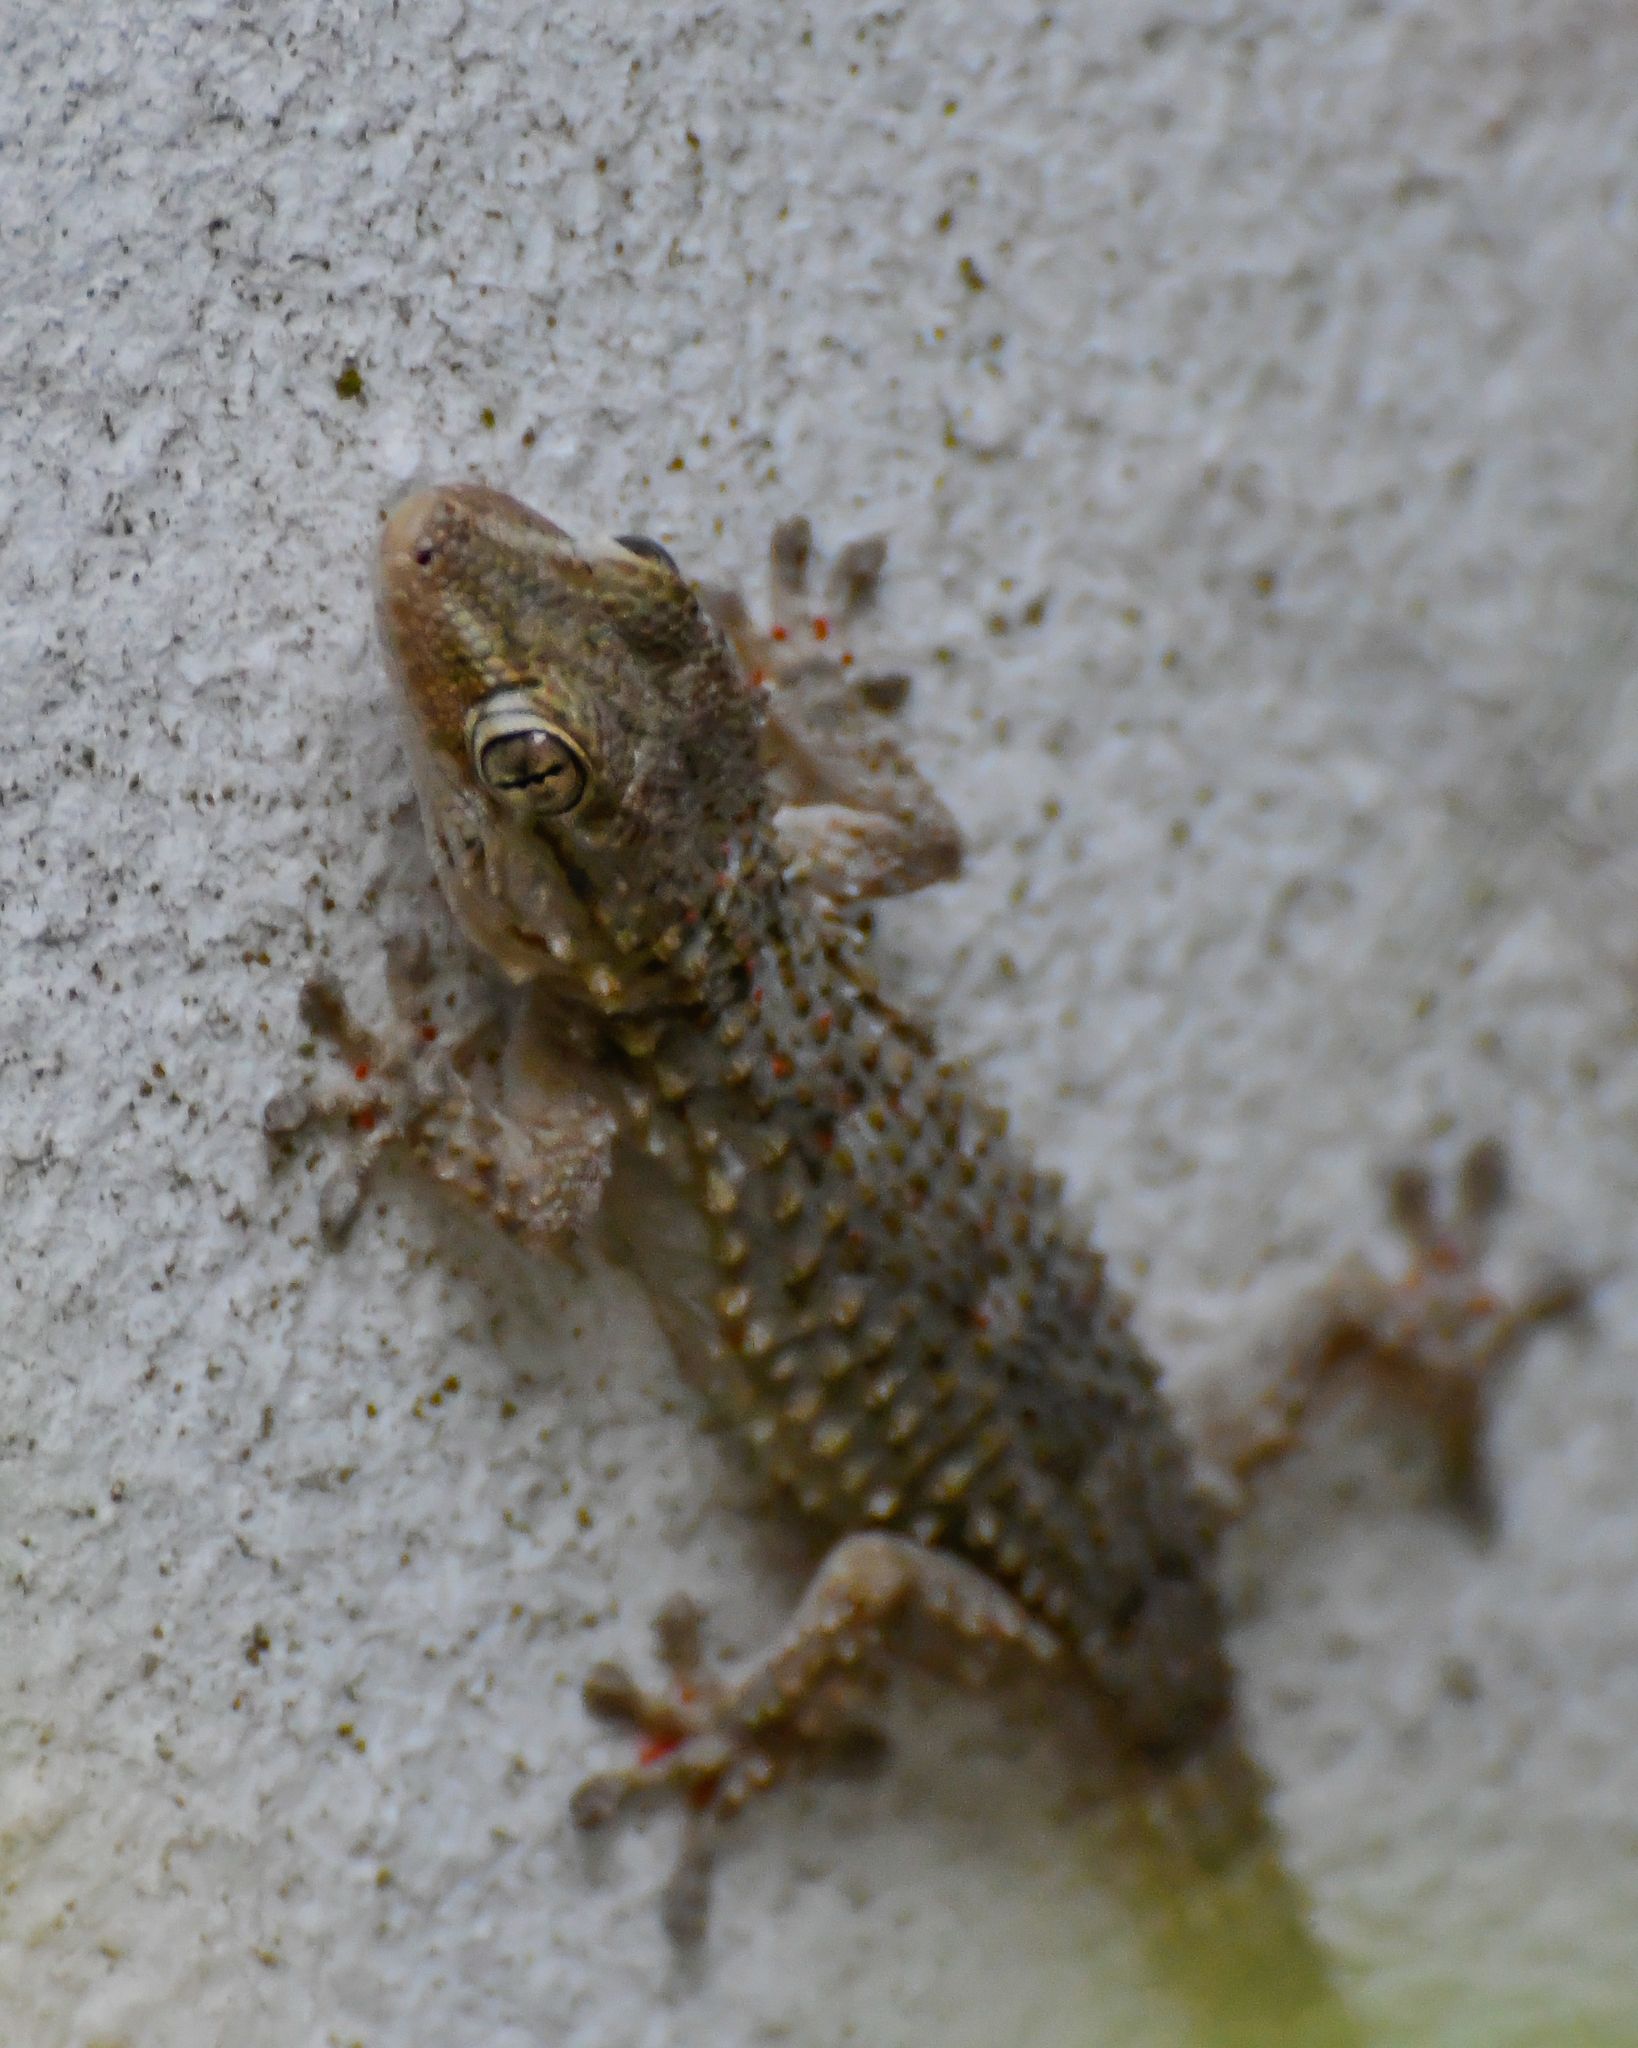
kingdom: Animalia
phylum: Chordata
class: Squamata
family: Phyllodactylidae
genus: Tarentola
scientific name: Tarentola mauritanica
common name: Moorish gecko
